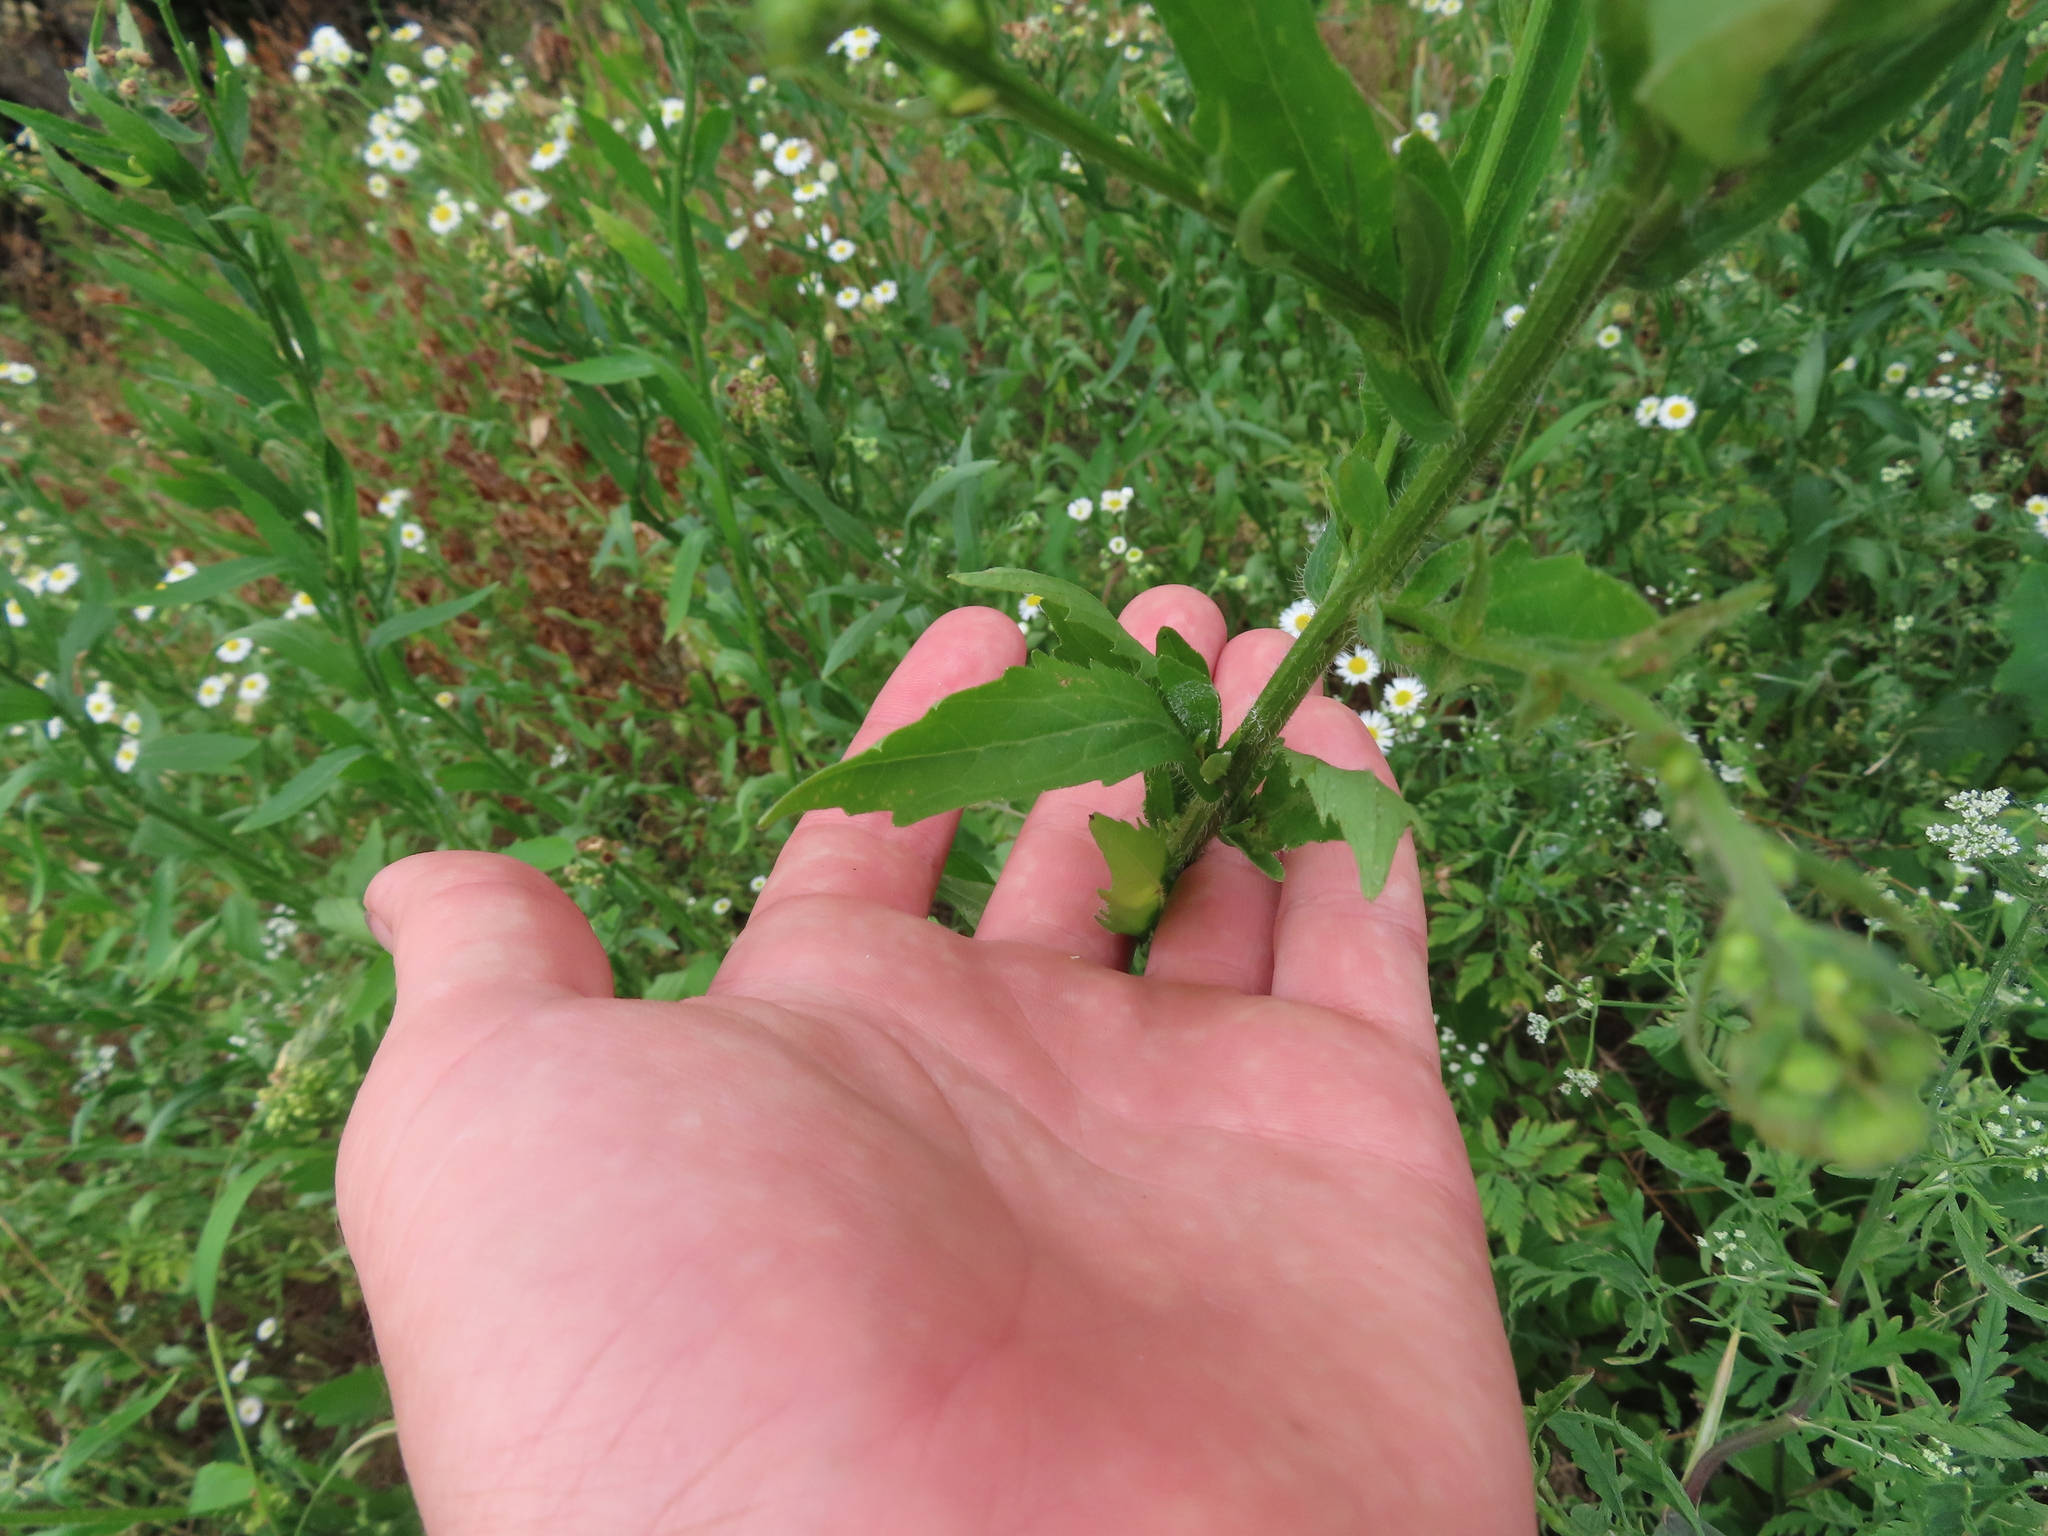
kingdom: Plantae
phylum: Tracheophyta
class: Magnoliopsida
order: Asterales
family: Asteraceae
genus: Erigeron
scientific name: Erigeron philadelphicus
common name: Robin's-plantain
